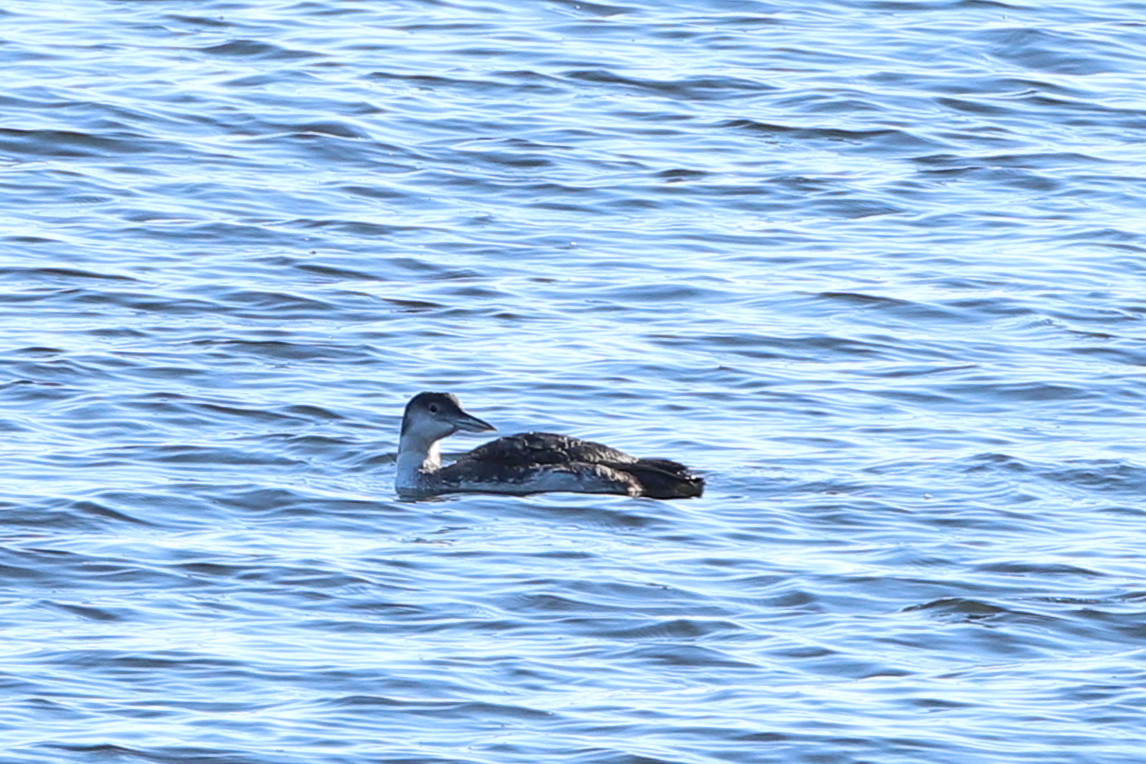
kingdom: Animalia
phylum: Chordata
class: Aves
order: Gaviiformes
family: Gaviidae
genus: Gavia
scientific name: Gavia immer
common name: Common loon
